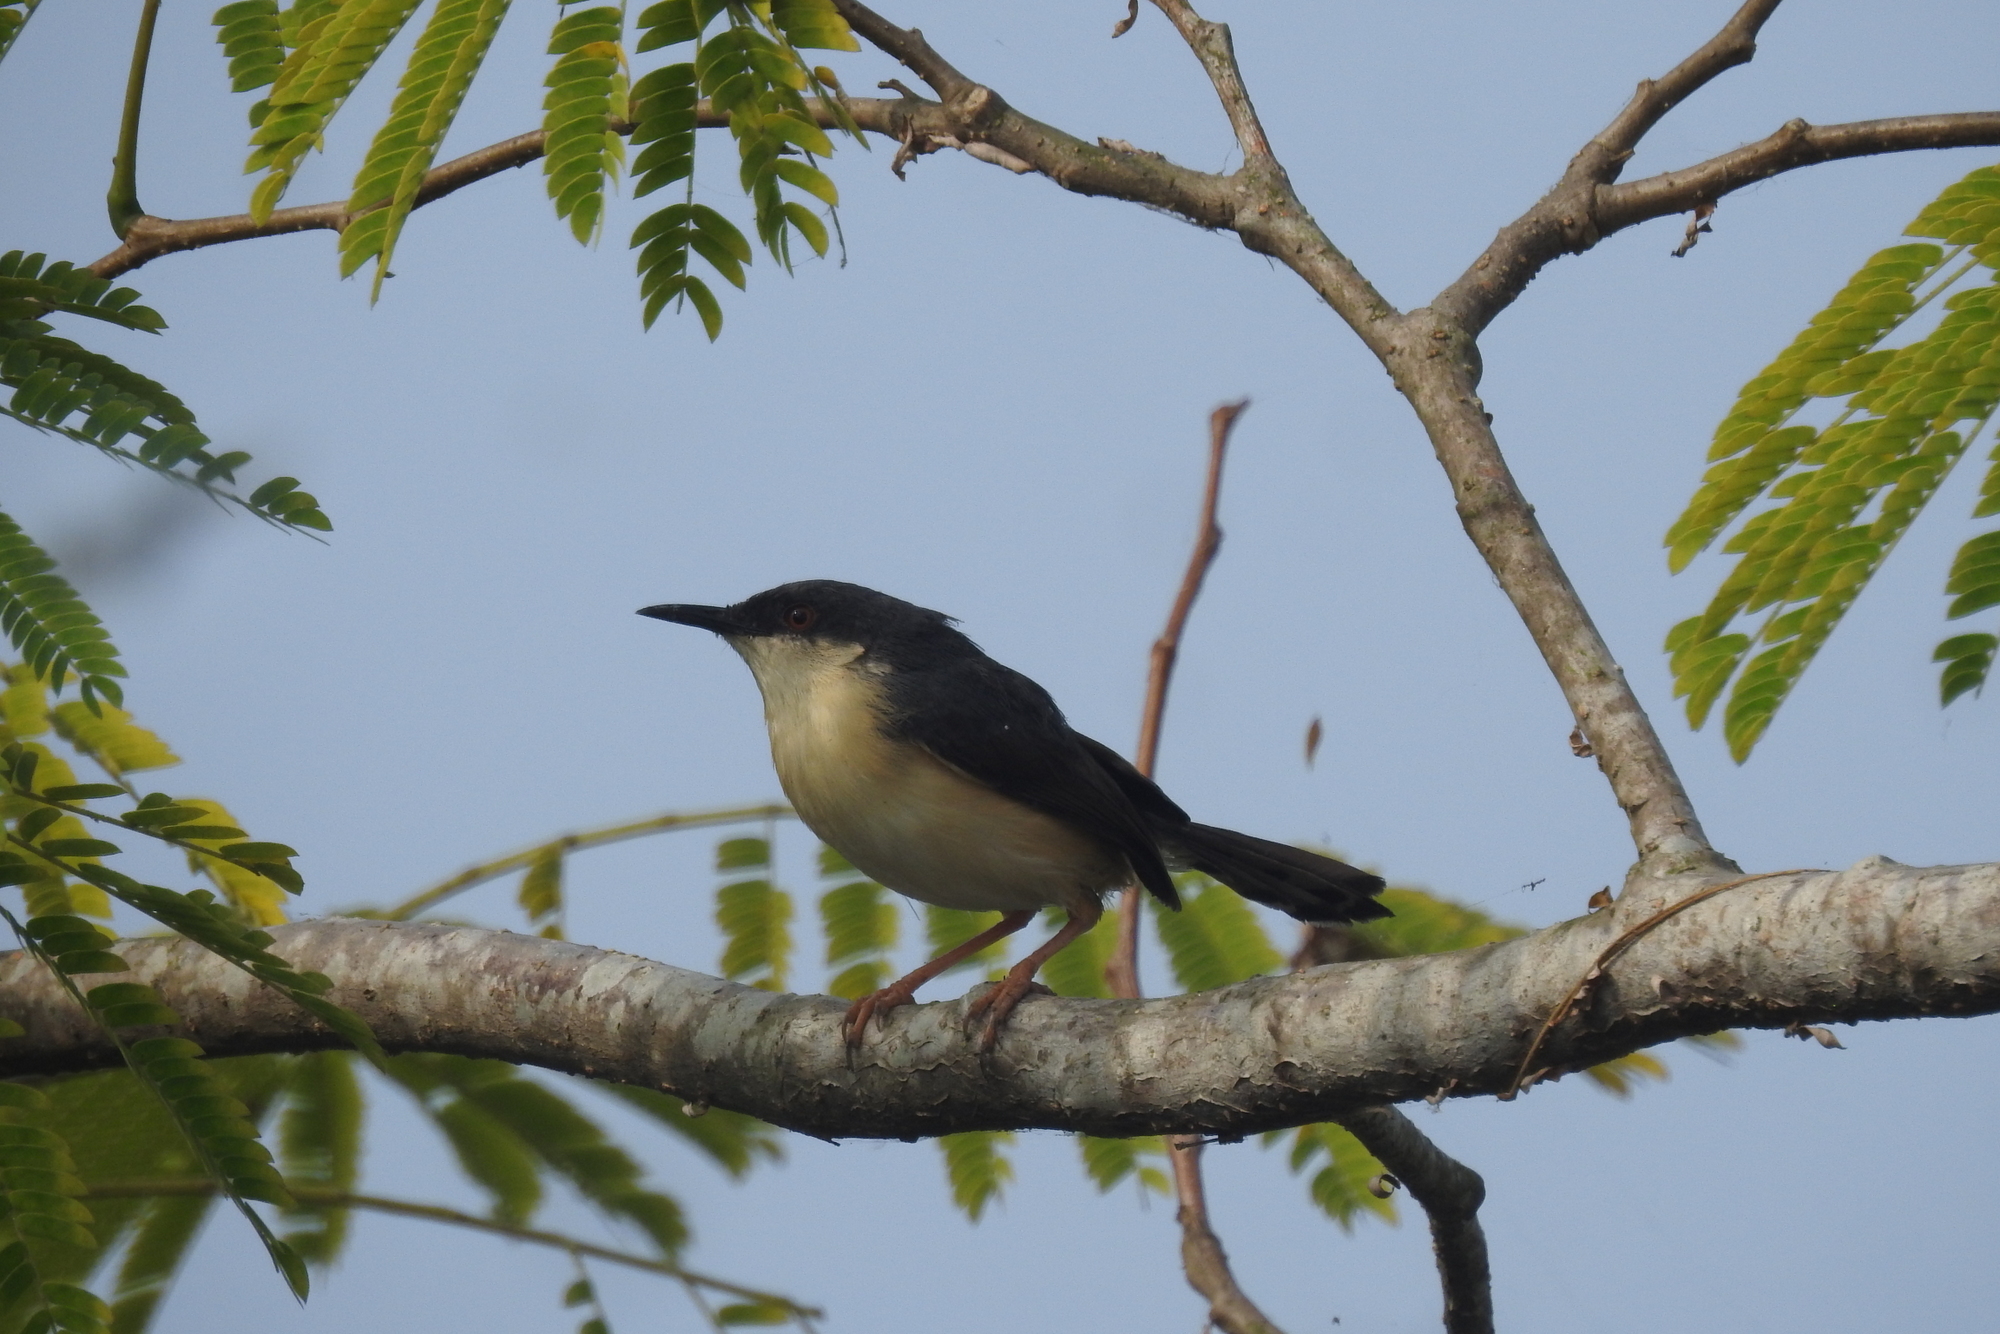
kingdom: Animalia
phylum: Chordata
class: Aves
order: Passeriformes
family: Cisticolidae
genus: Prinia
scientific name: Prinia socialis
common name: Ashy prinia
